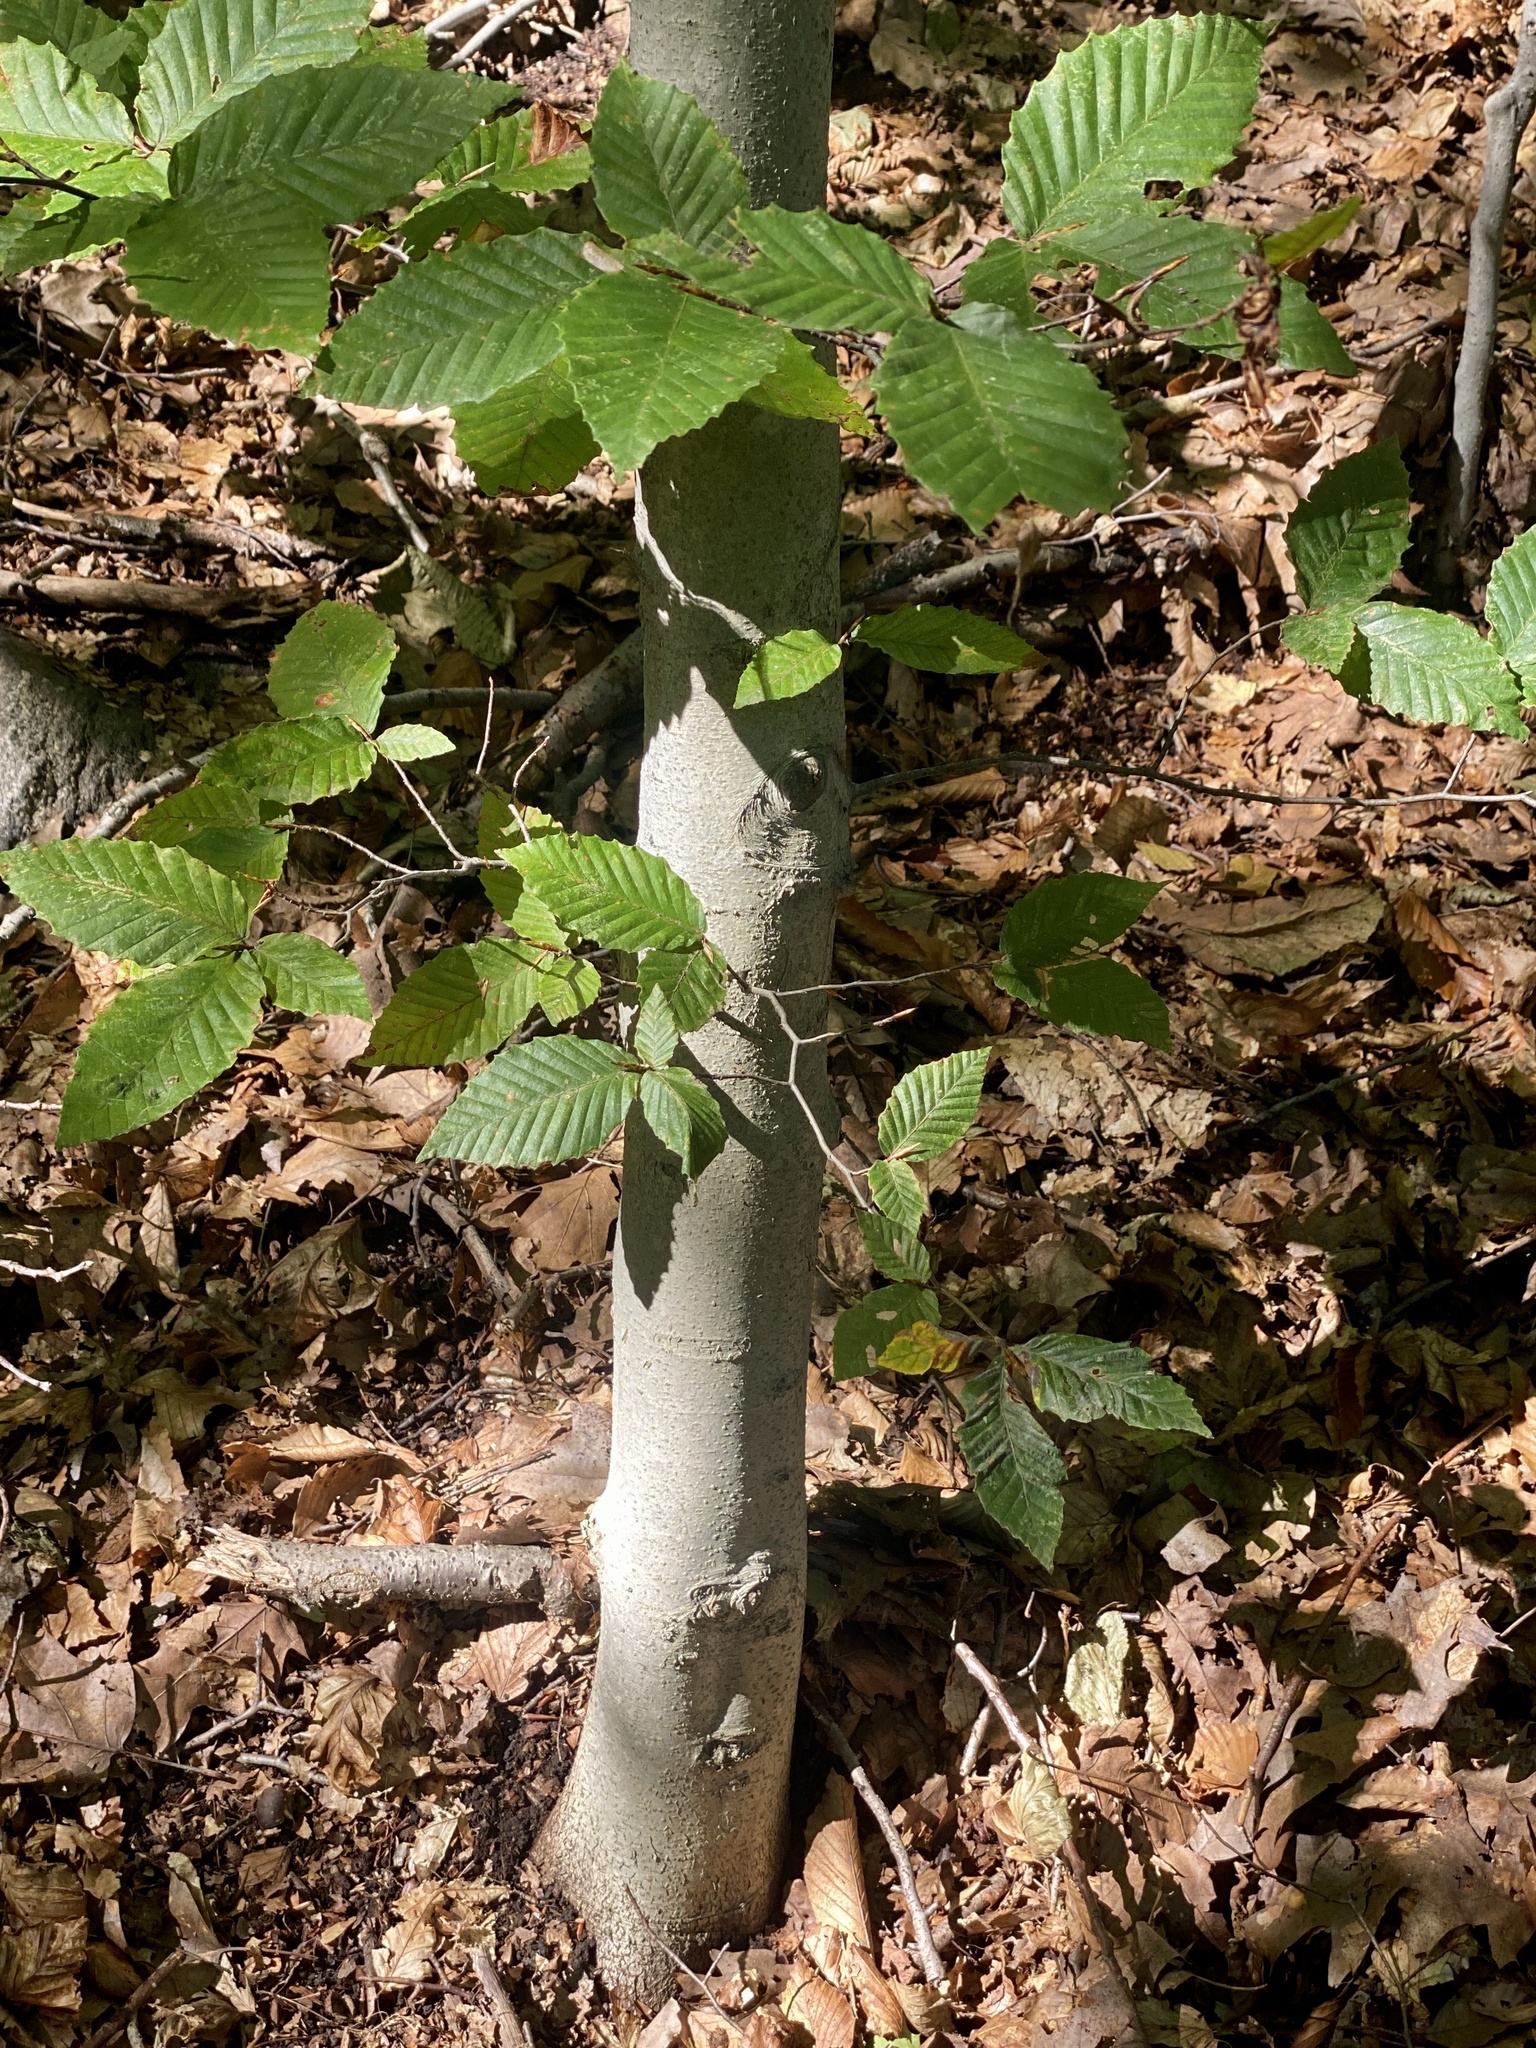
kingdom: Plantae
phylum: Tracheophyta
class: Magnoliopsida
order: Fagales
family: Fagaceae
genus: Fagus
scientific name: Fagus grandifolia
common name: American beech
